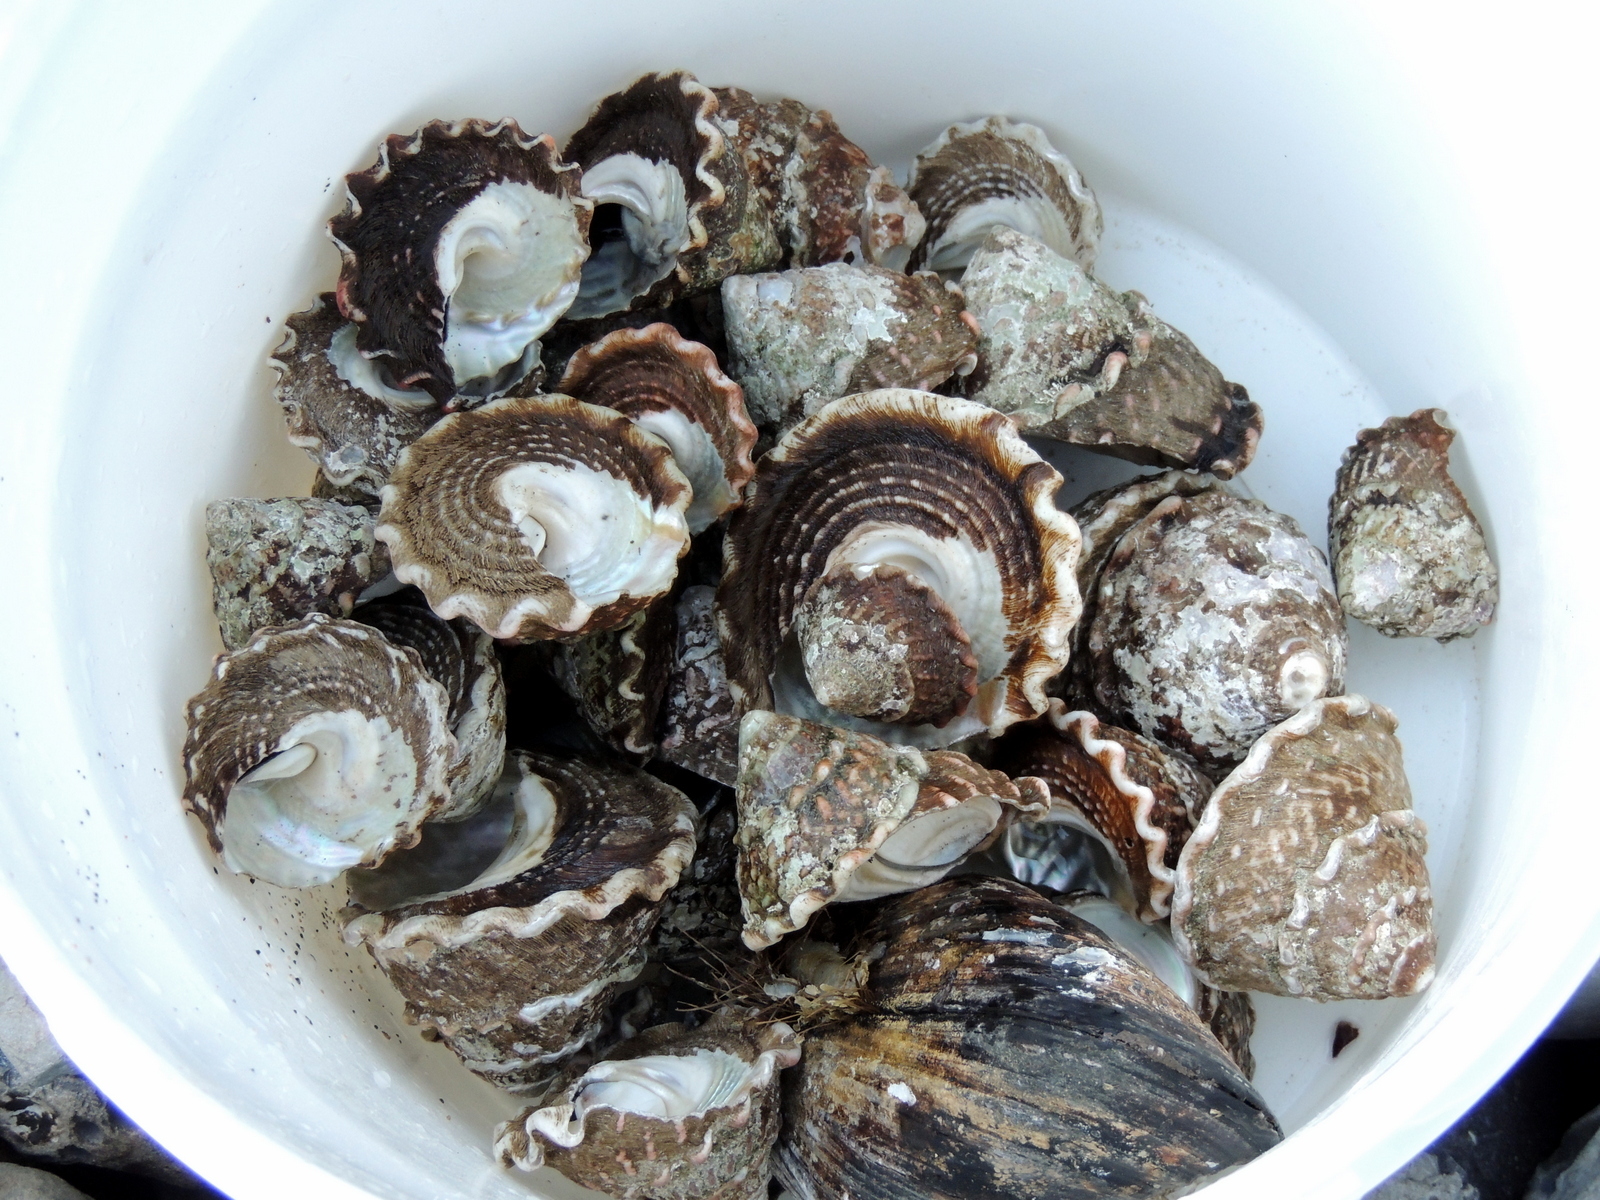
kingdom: Animalia
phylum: Mollusca
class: Gastropoda
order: Trochida
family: Turbinidae
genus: Megastraea
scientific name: Megastraea undosa
